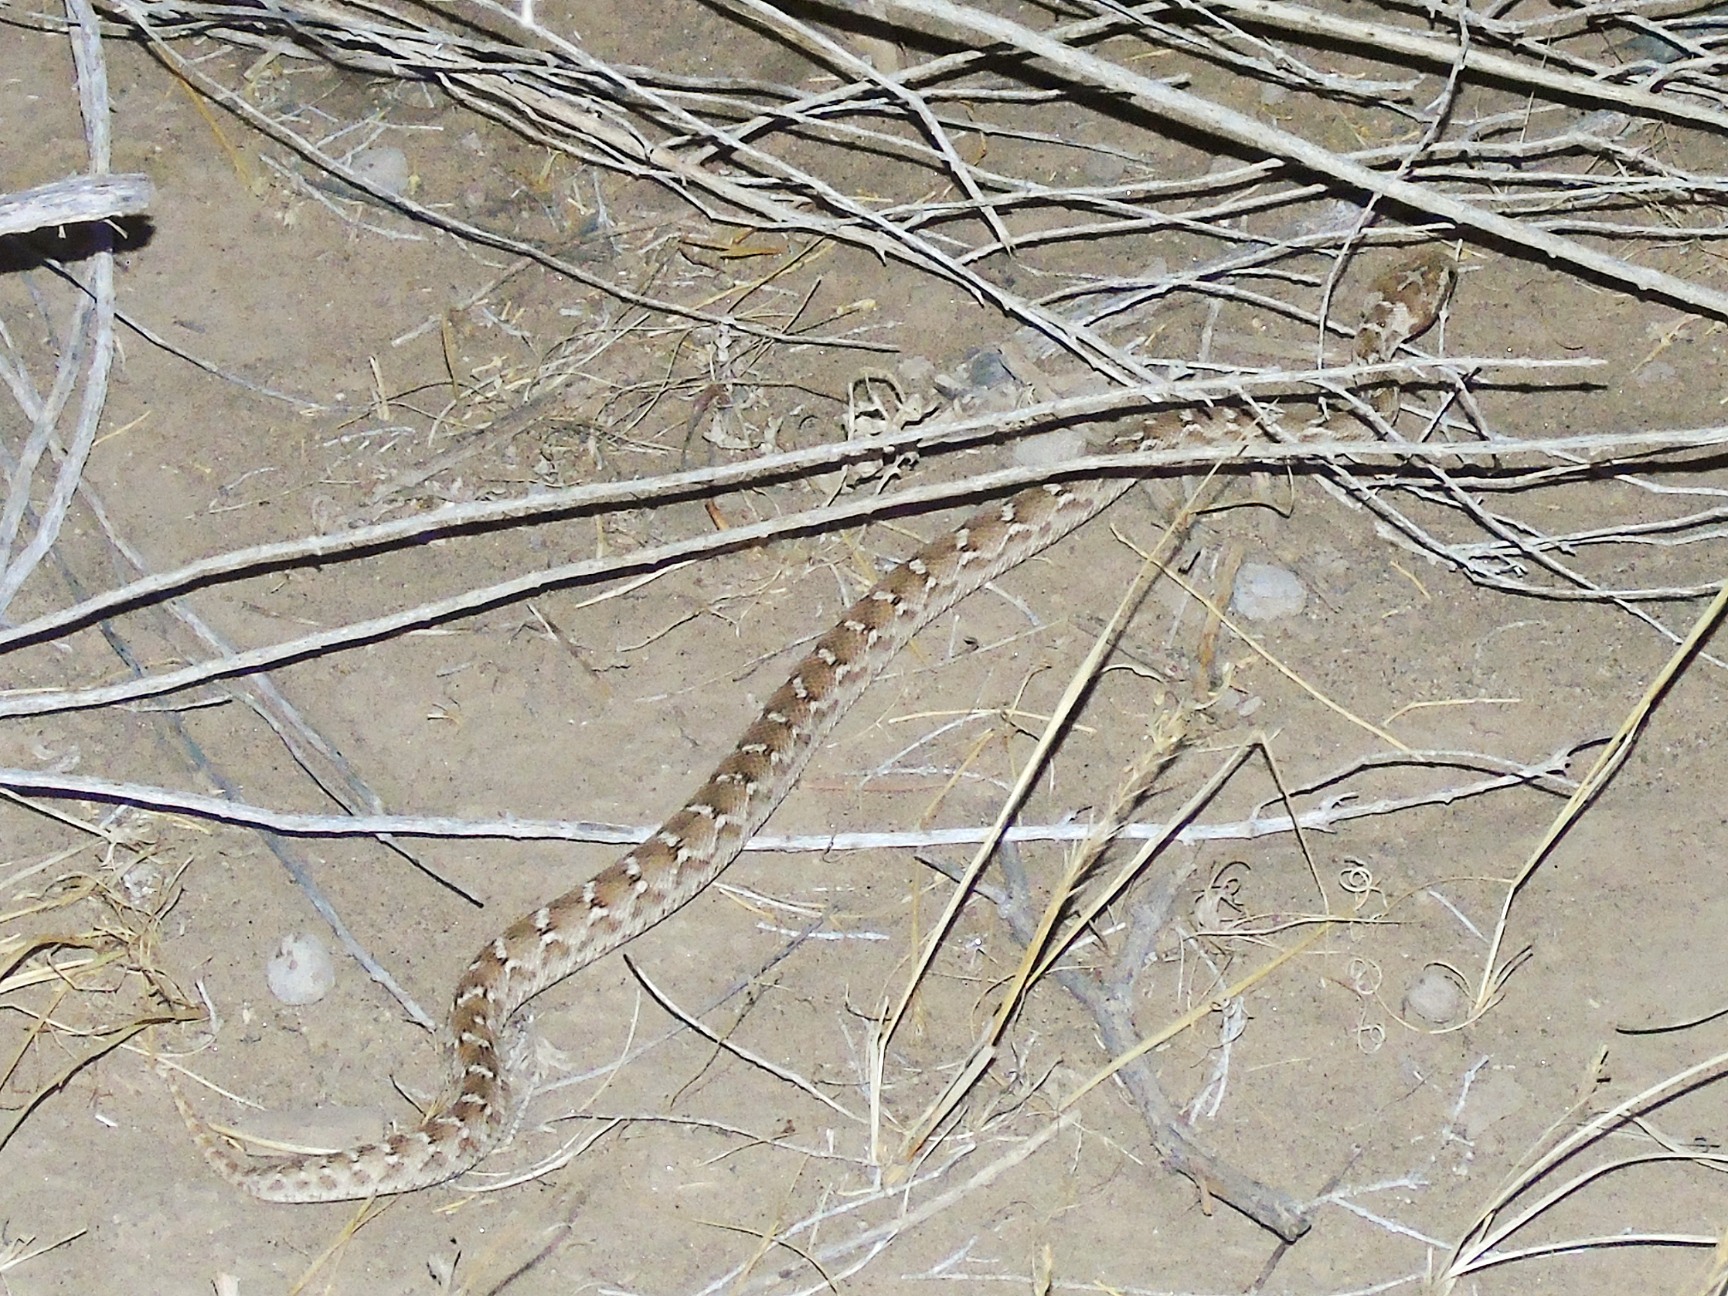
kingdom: Animalia
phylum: Chordata
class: Squamata
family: Viperidae
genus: Echis
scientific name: Echis carinatus
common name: Saw-scaled viper
